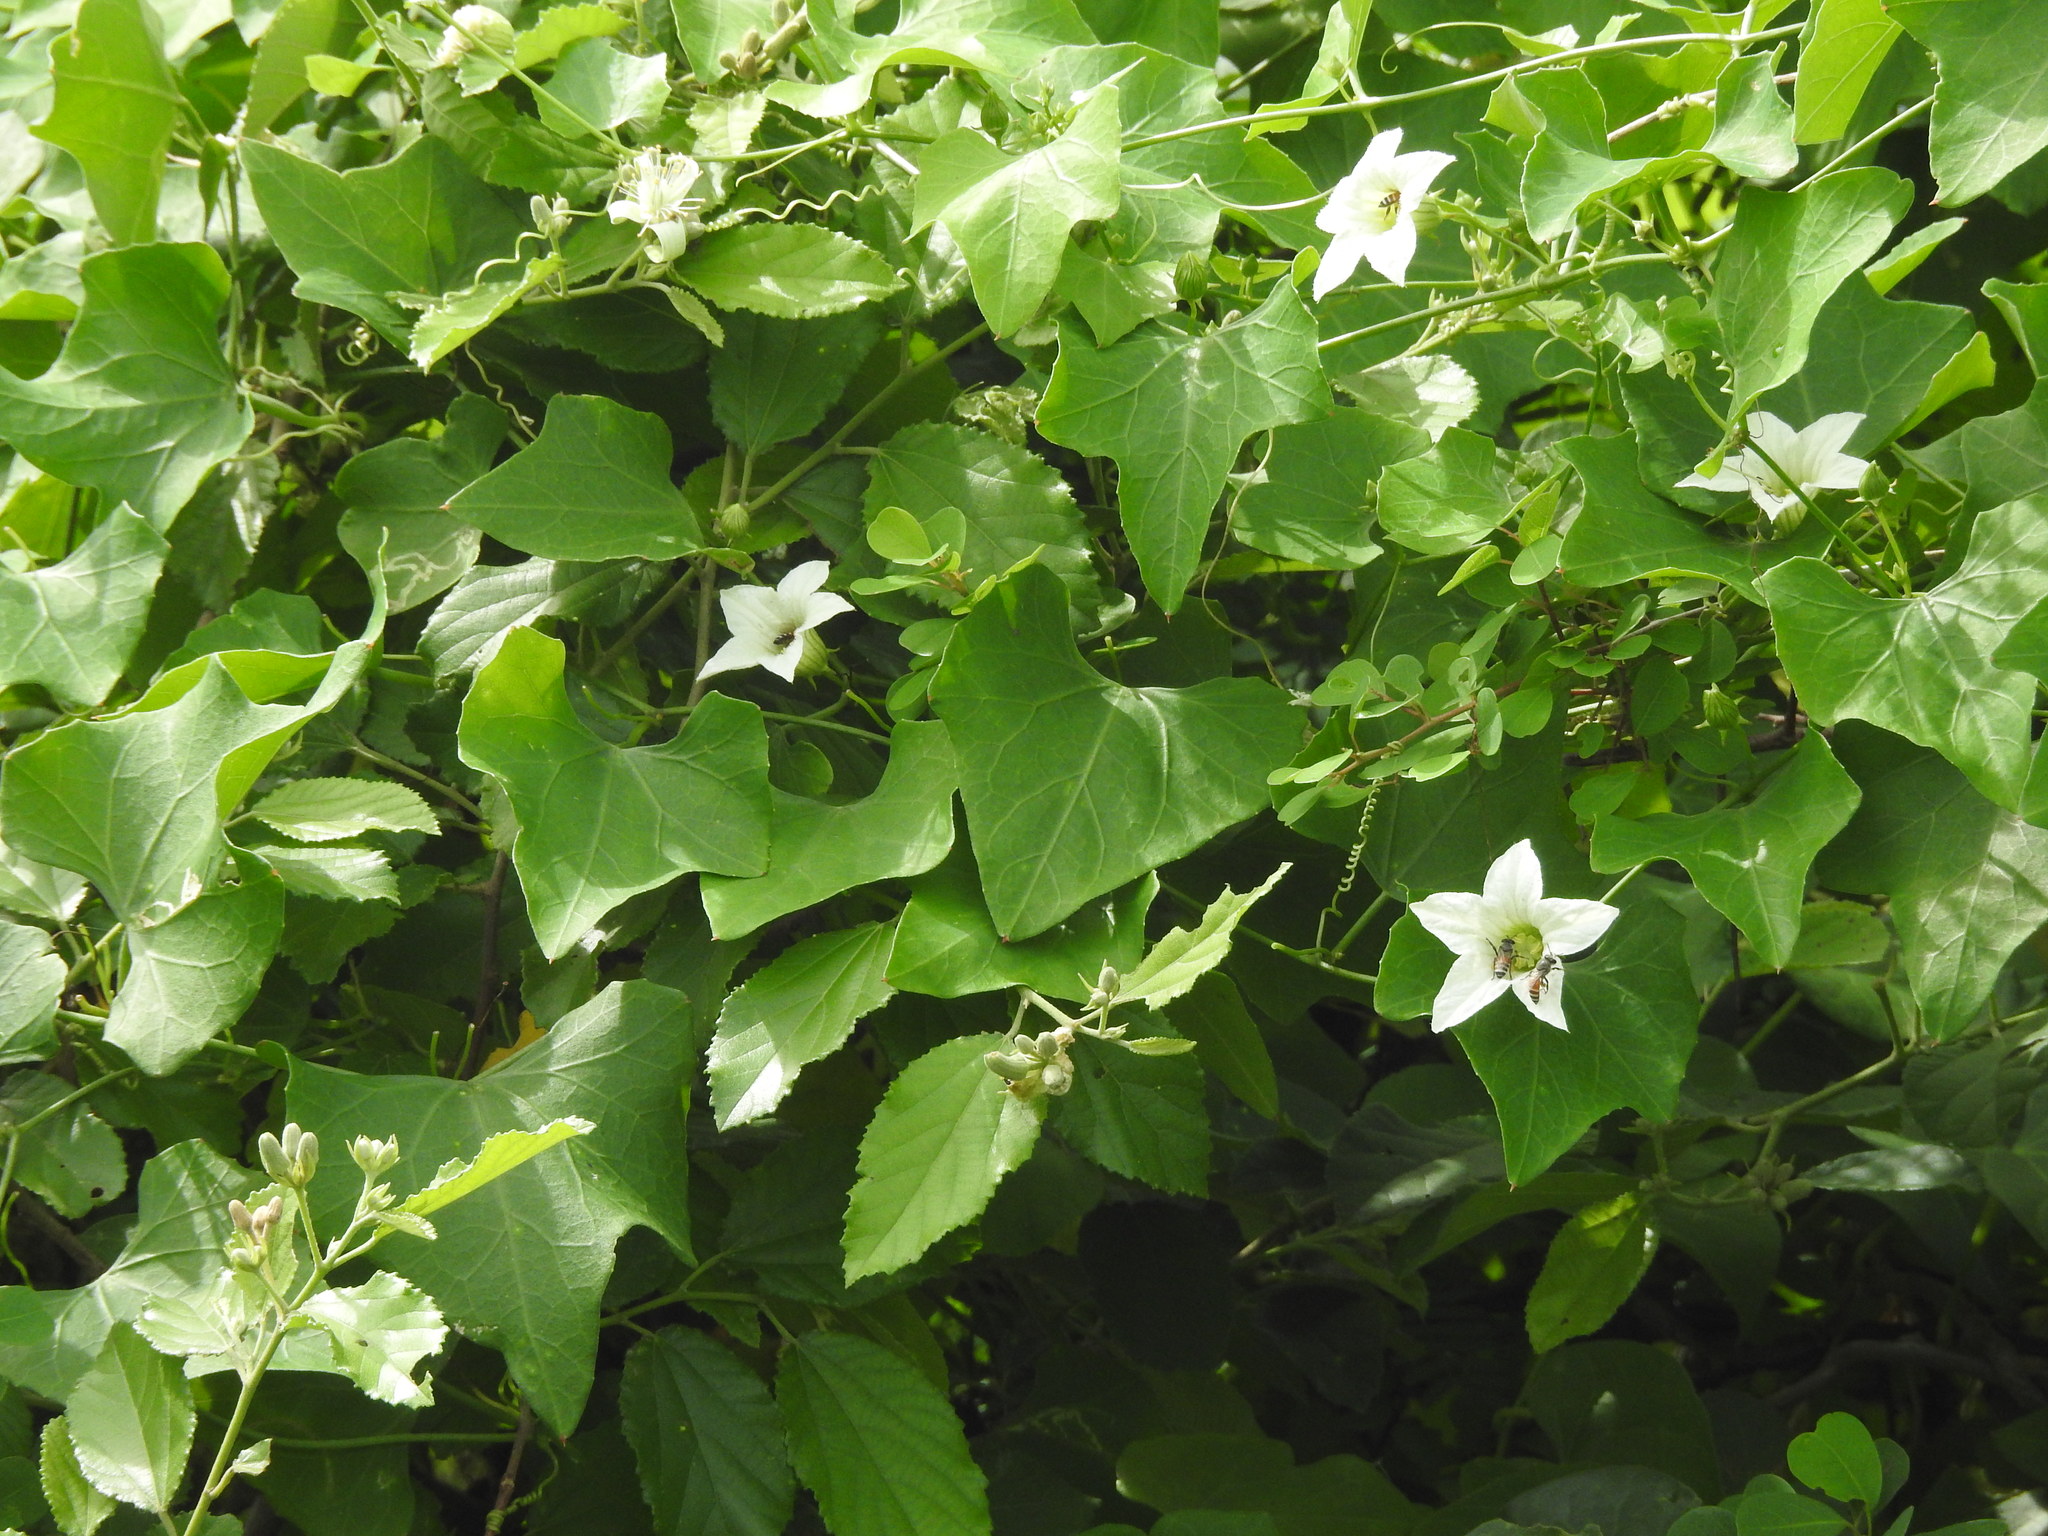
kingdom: Plantae
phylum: Tracheophyta
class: Magnoliopsida
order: Cucurbitales
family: Cucurbitaceae
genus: Coccinia
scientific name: Coccinia grandis
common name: Ivy gourd
